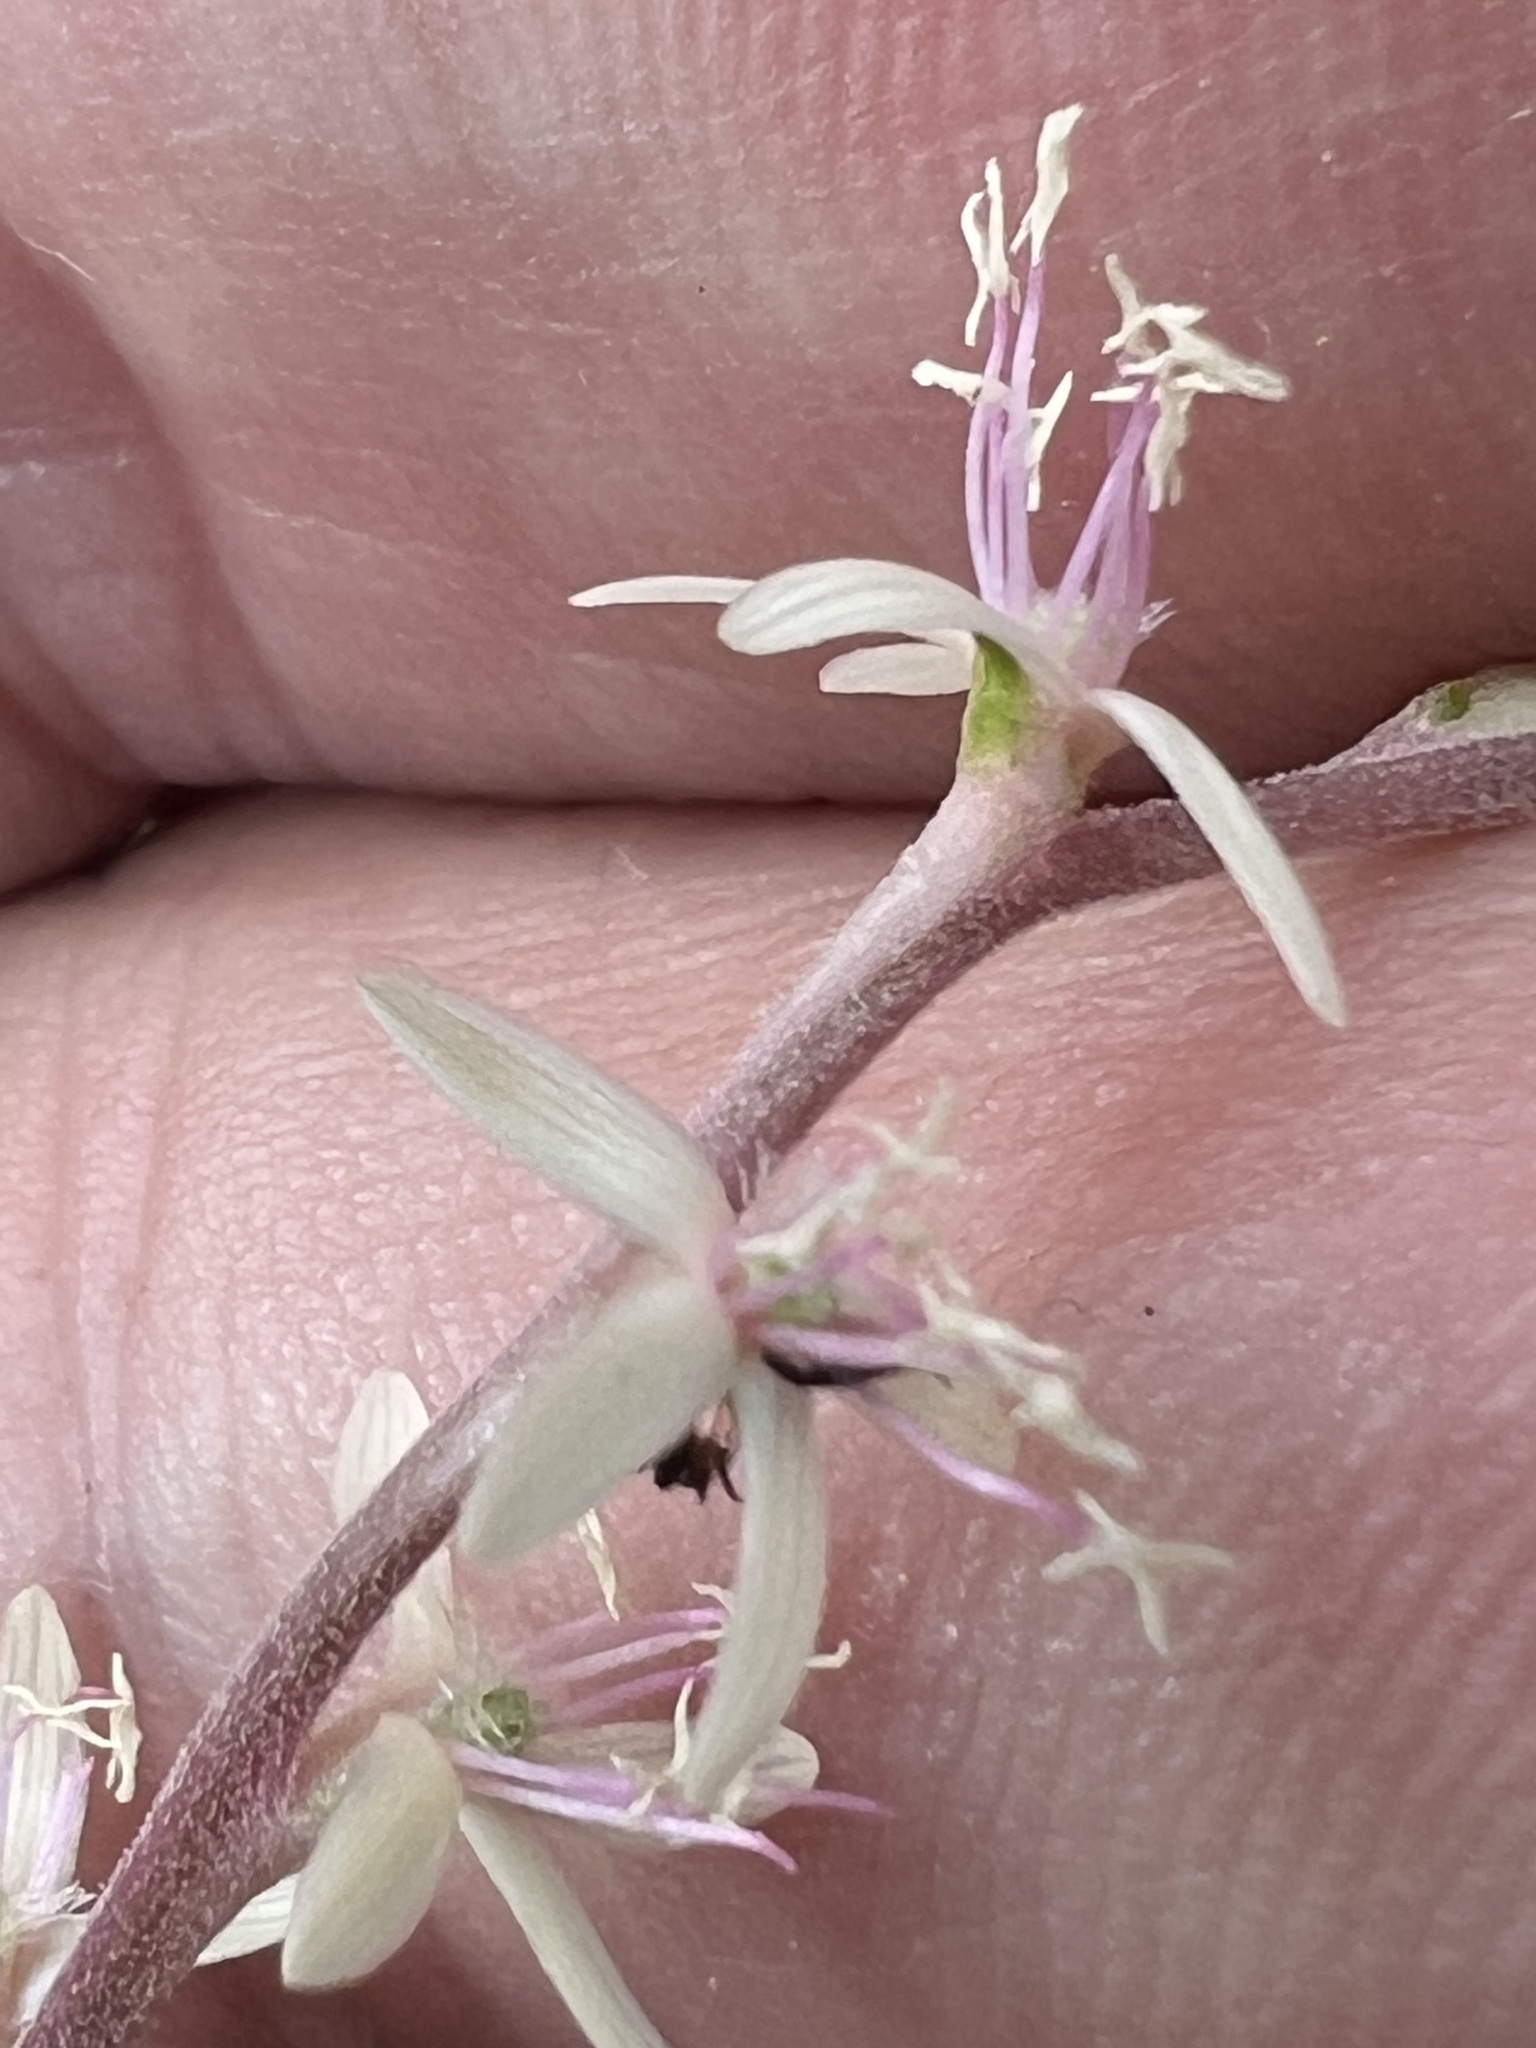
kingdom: Plantae
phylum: Tracheophyta
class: Magnoliopsida
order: Caryophyllales
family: Phytolaccaceae
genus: Petiveria
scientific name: Petiveria alliacea
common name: Garlicweed
